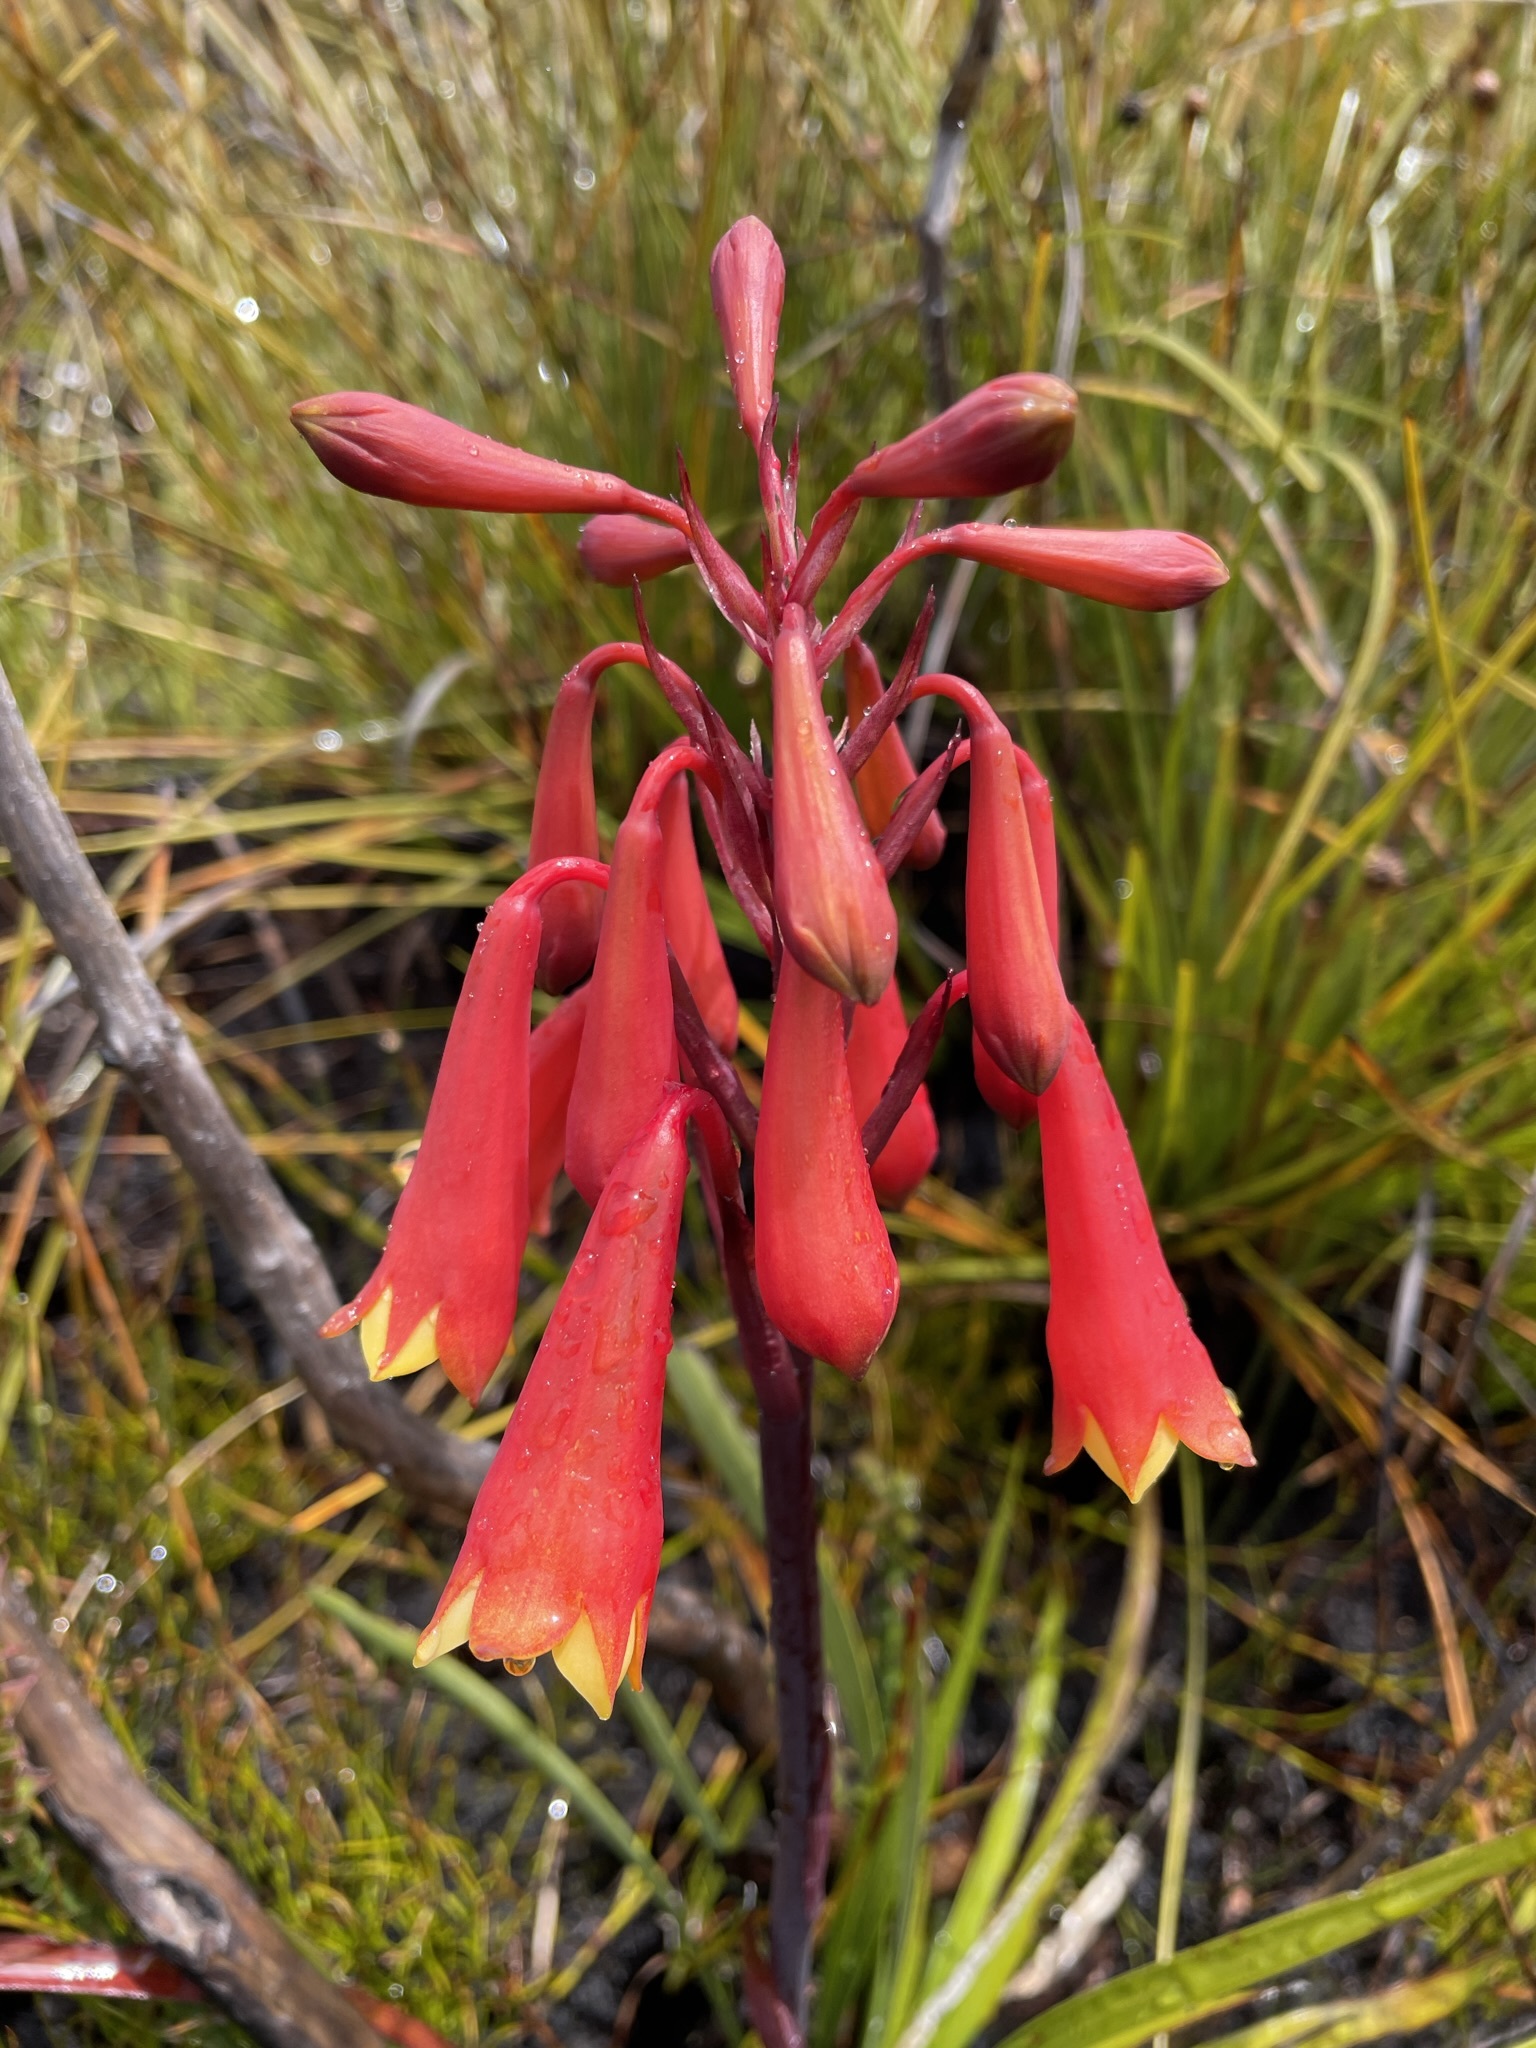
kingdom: Plantae
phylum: Tracheophyta
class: Liliopsida
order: Asparagales
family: Blandfordiaceae
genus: Blandfordia
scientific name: Blandfordia punicea
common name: Tasmanian christmas-bell
